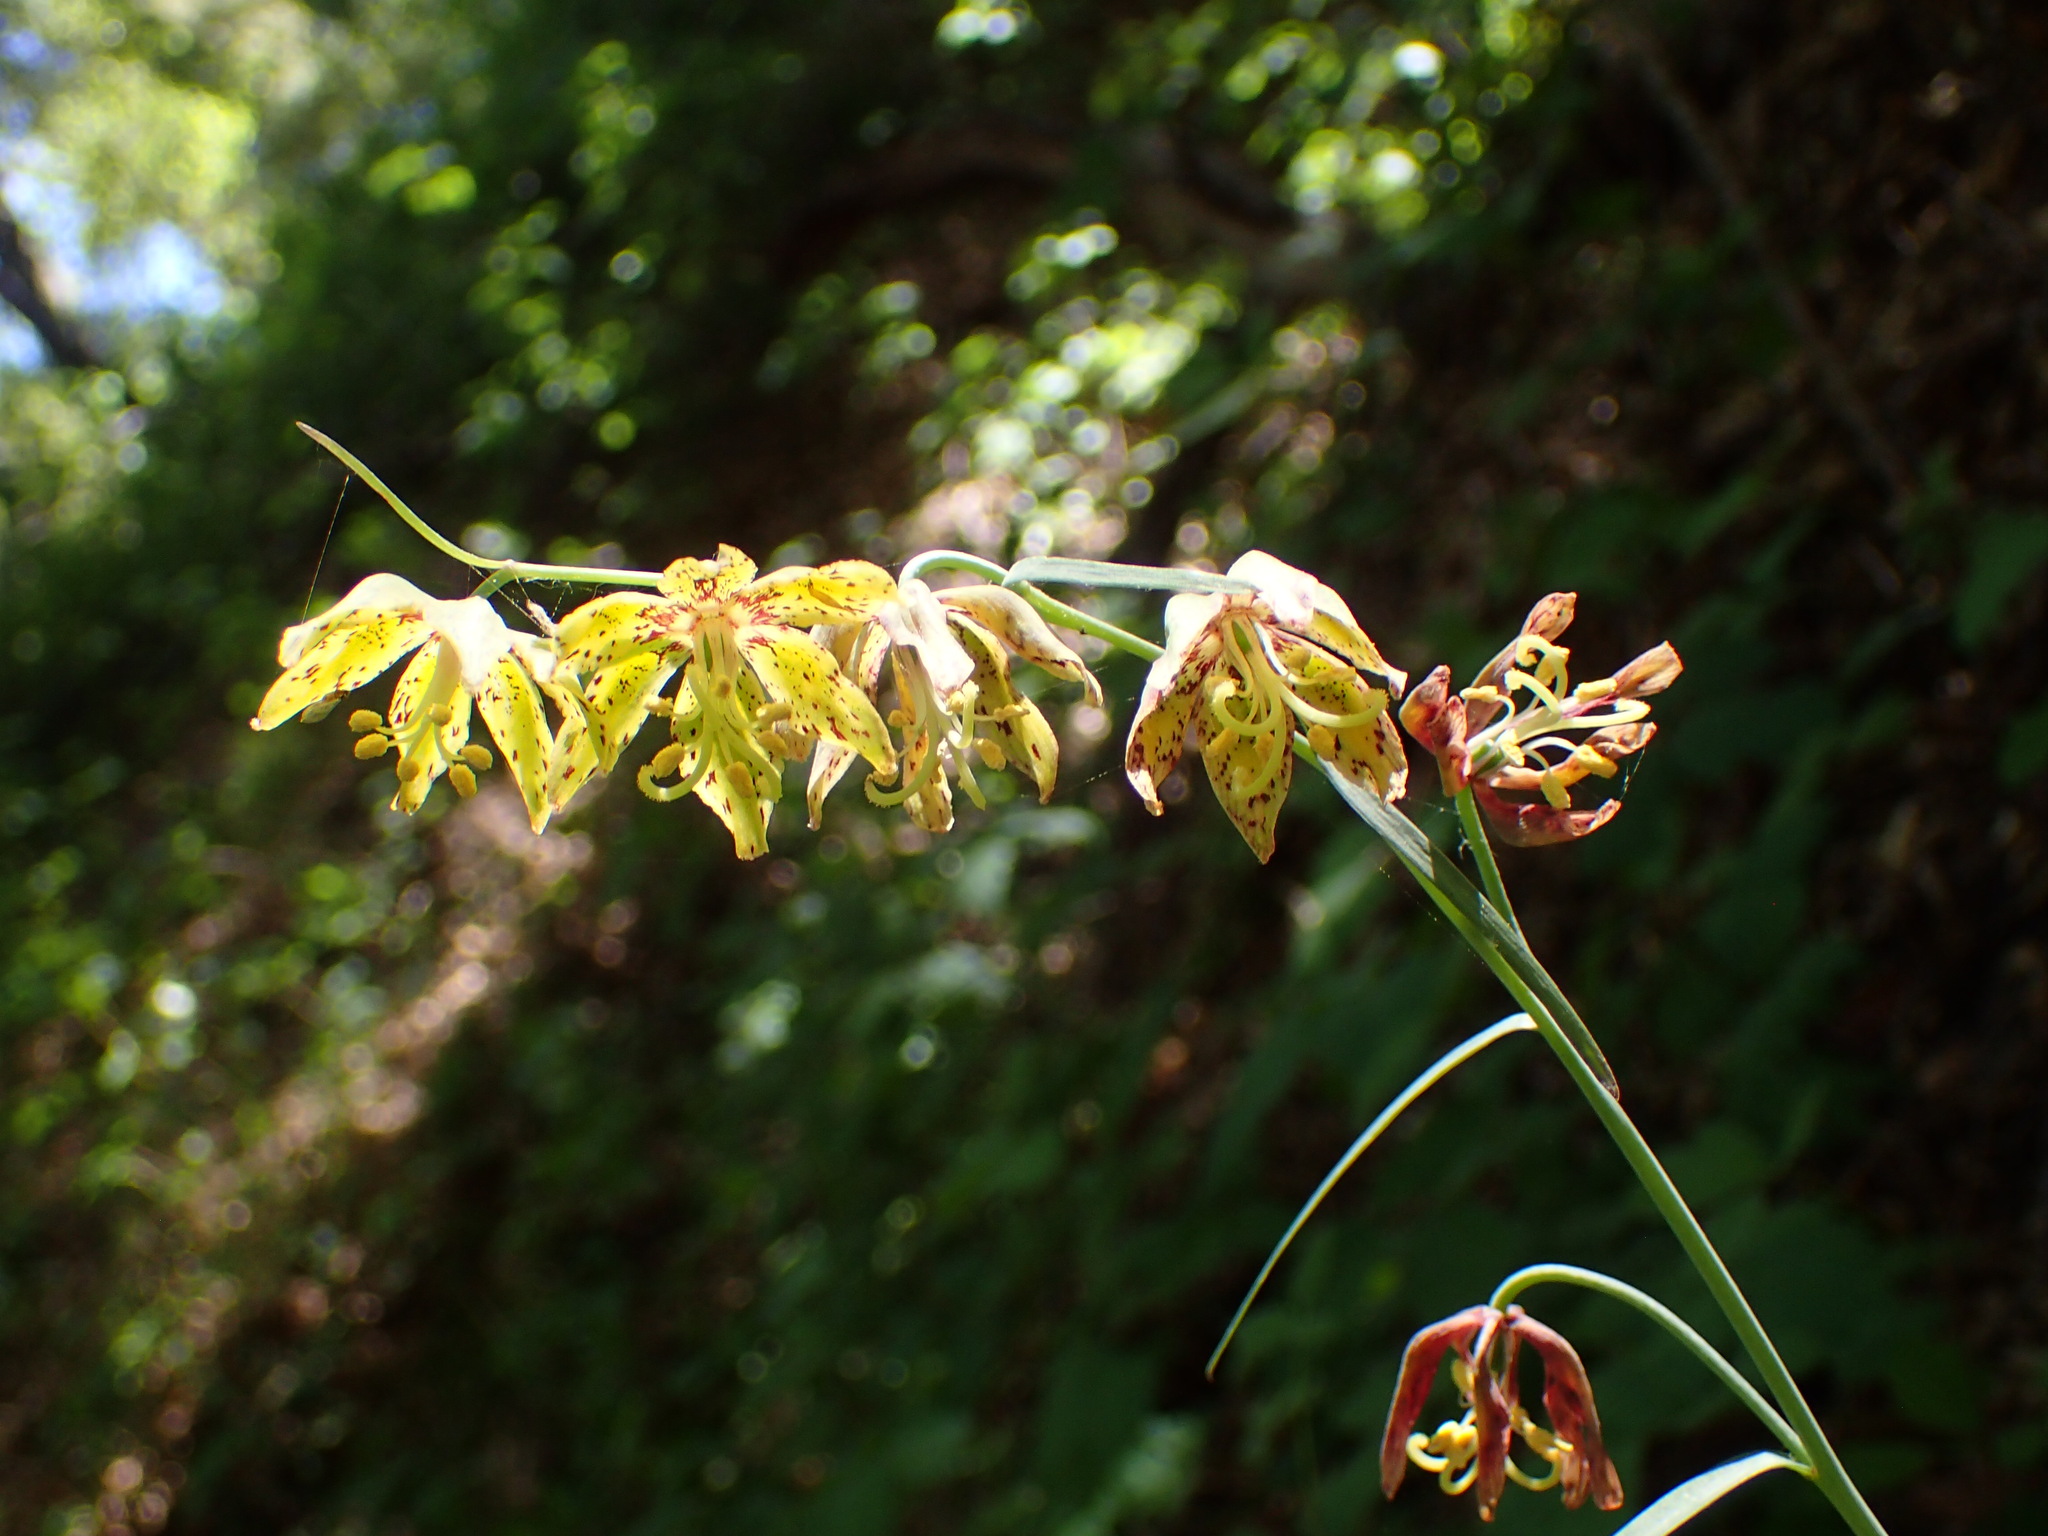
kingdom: Plantae
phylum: Tracheophyta
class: Liliopsida
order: Liliales
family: Liliaceae
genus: Fritillaria
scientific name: Fritillaria ojaiensis
